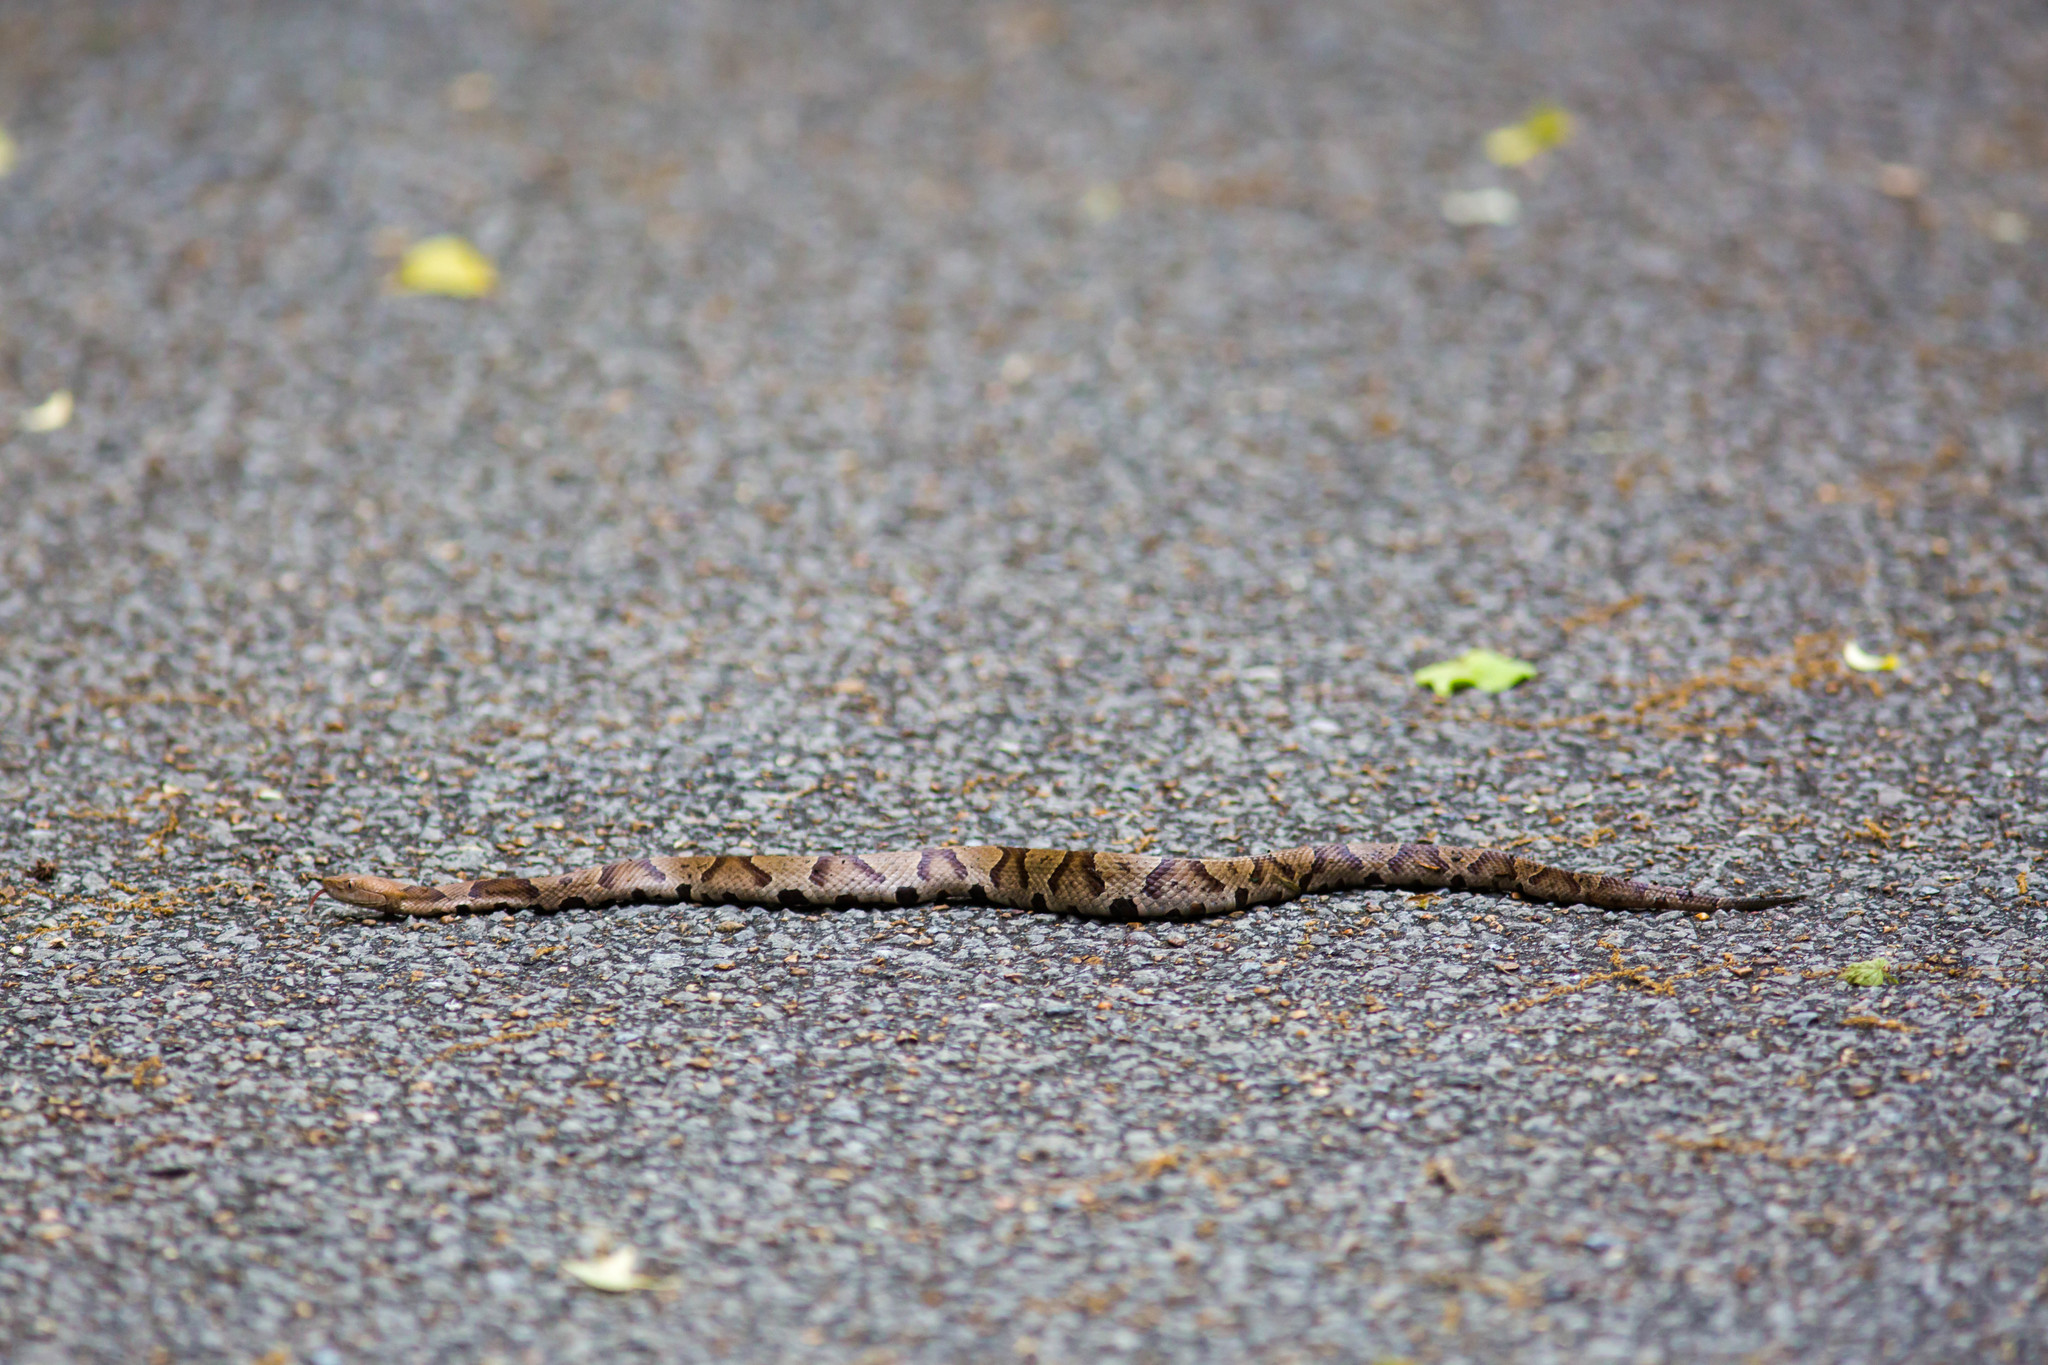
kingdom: Animalia
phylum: Chordata
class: Squamata
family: Viperidae
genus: Agkistrodon
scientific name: Agkistrodon contortrix
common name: Northern copperhead
